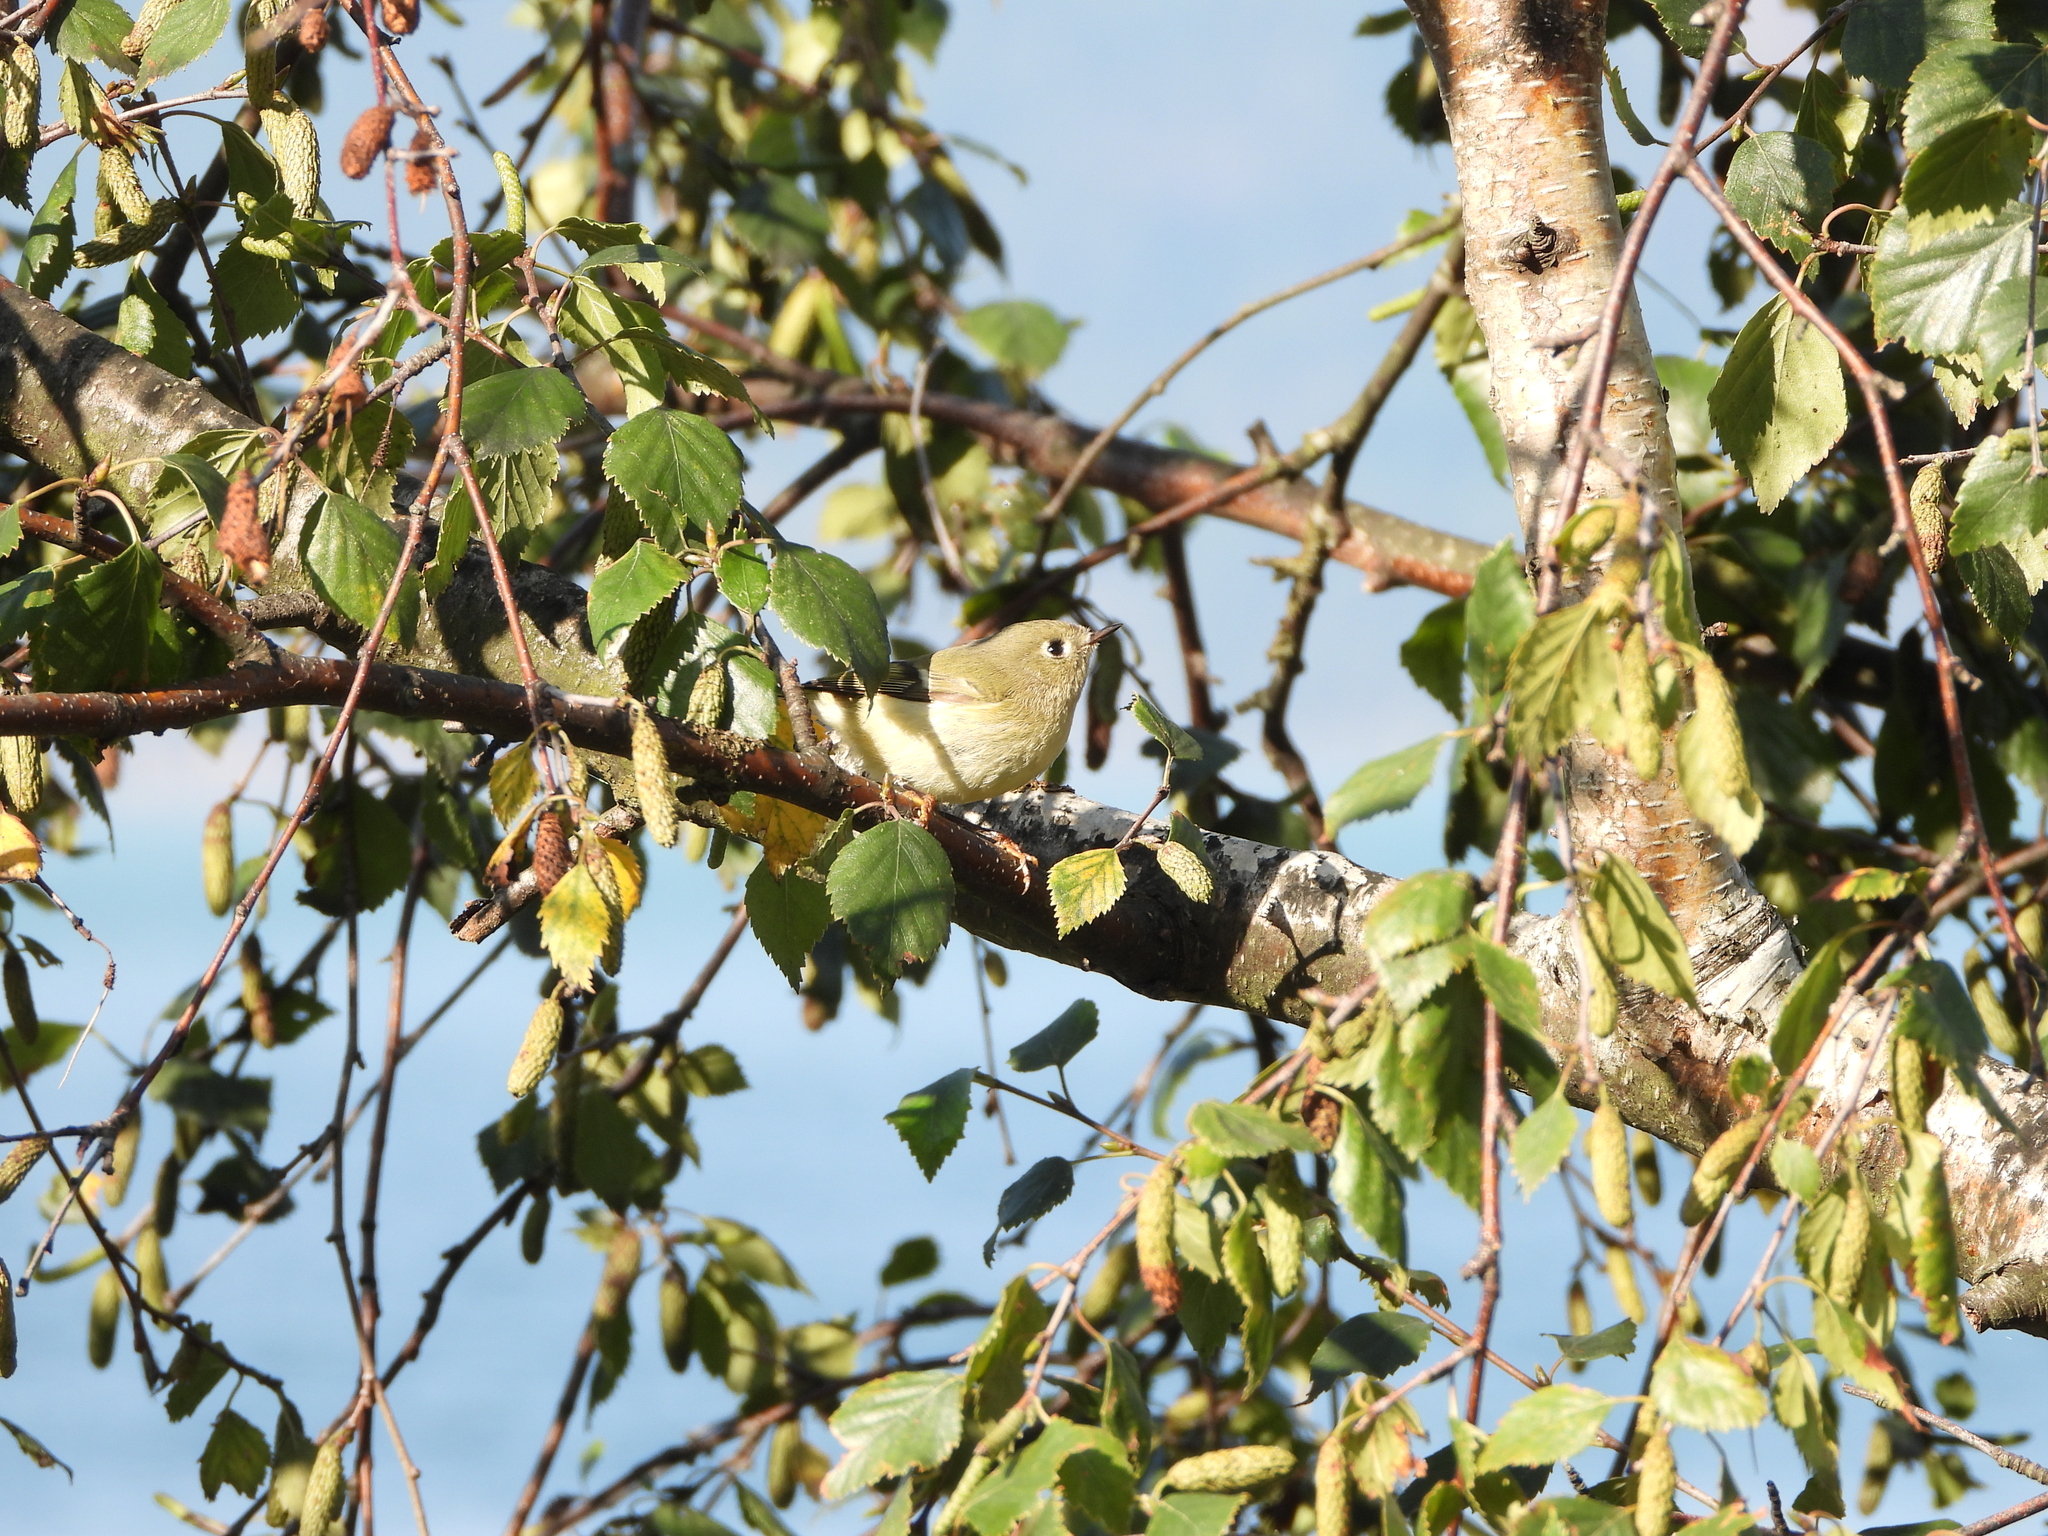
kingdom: Animalia
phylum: Chordata
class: Aves
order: Passeriformes
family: Regulidae
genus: Regulus
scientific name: Regulus calendula
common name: Ruby-crowned kinglet
